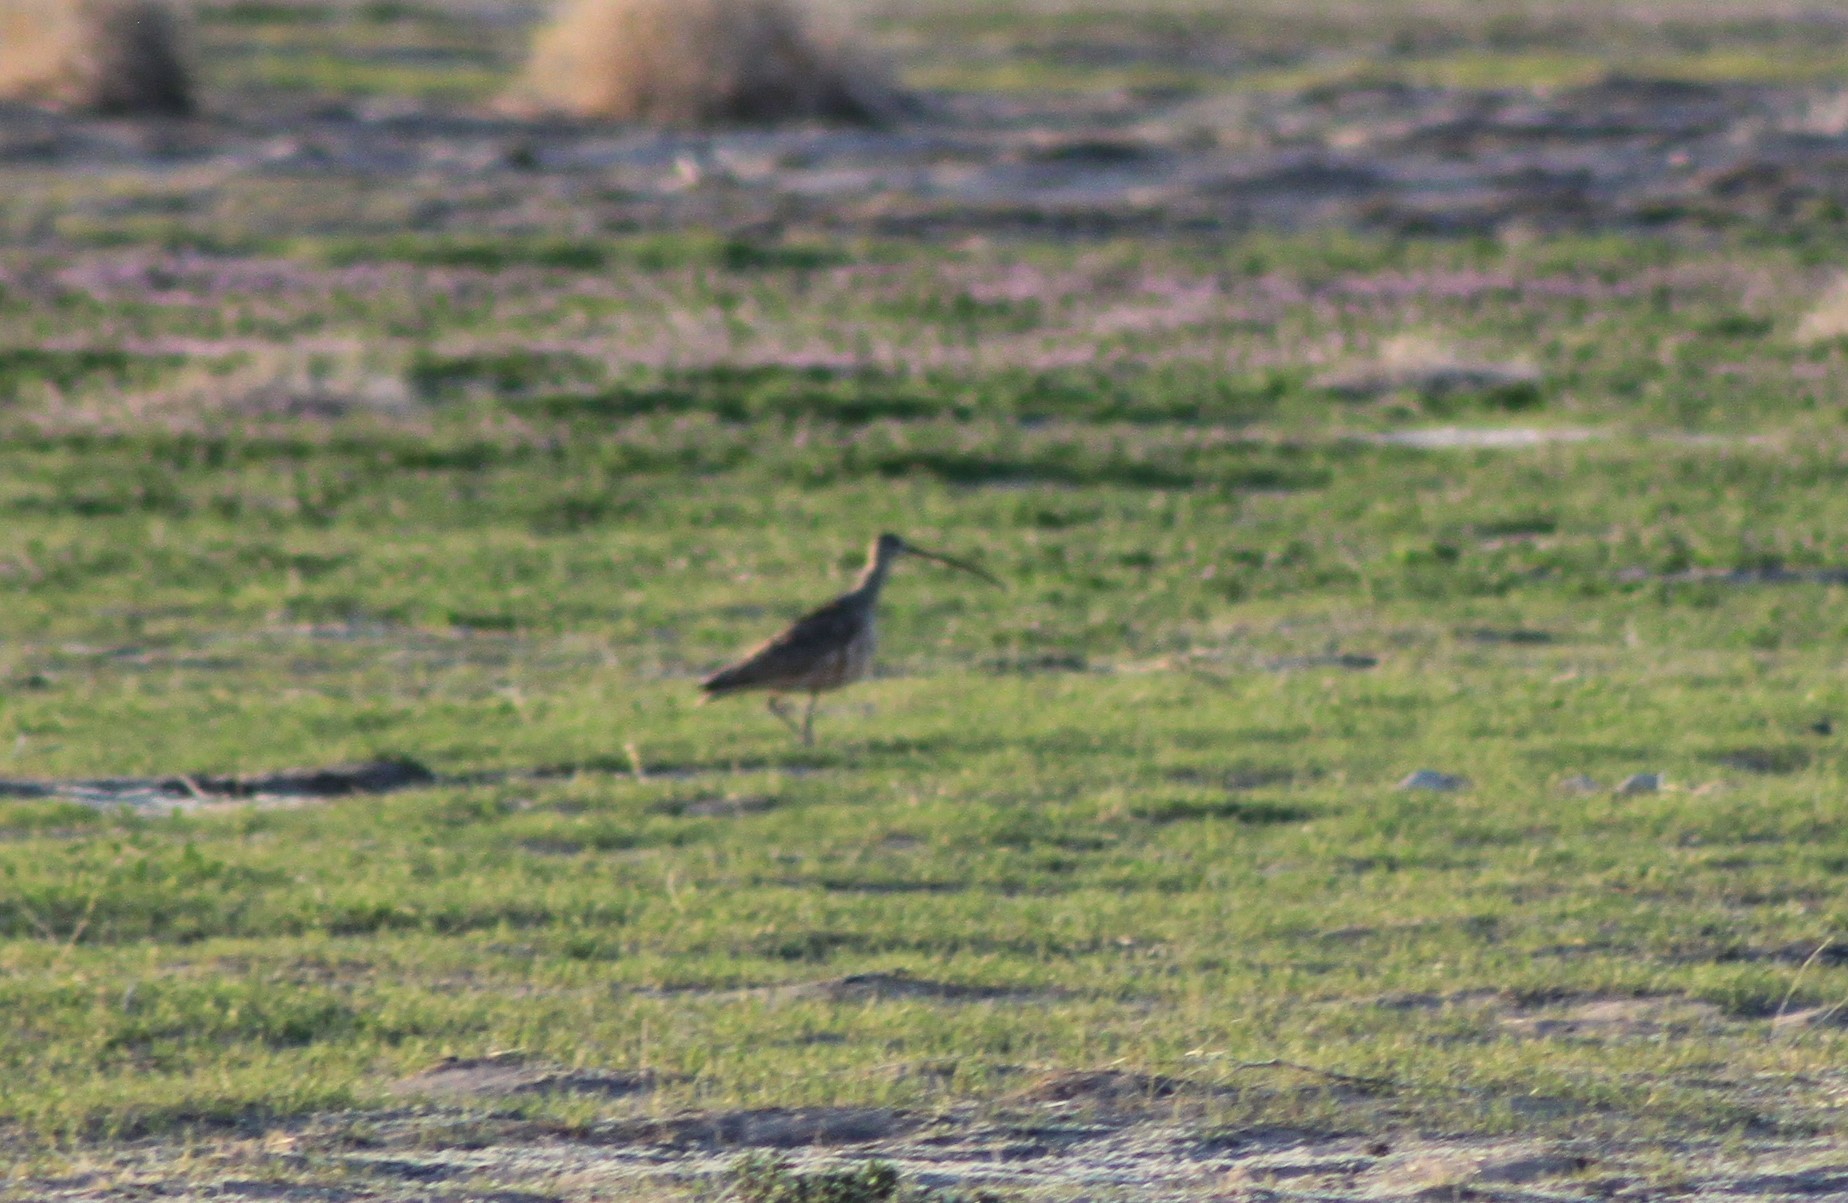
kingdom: Animalia
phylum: Chordata
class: Aves
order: Charadriiformes
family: Scolopacidae
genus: Numenius
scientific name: Numenius americanus
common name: Long-billed curlew
